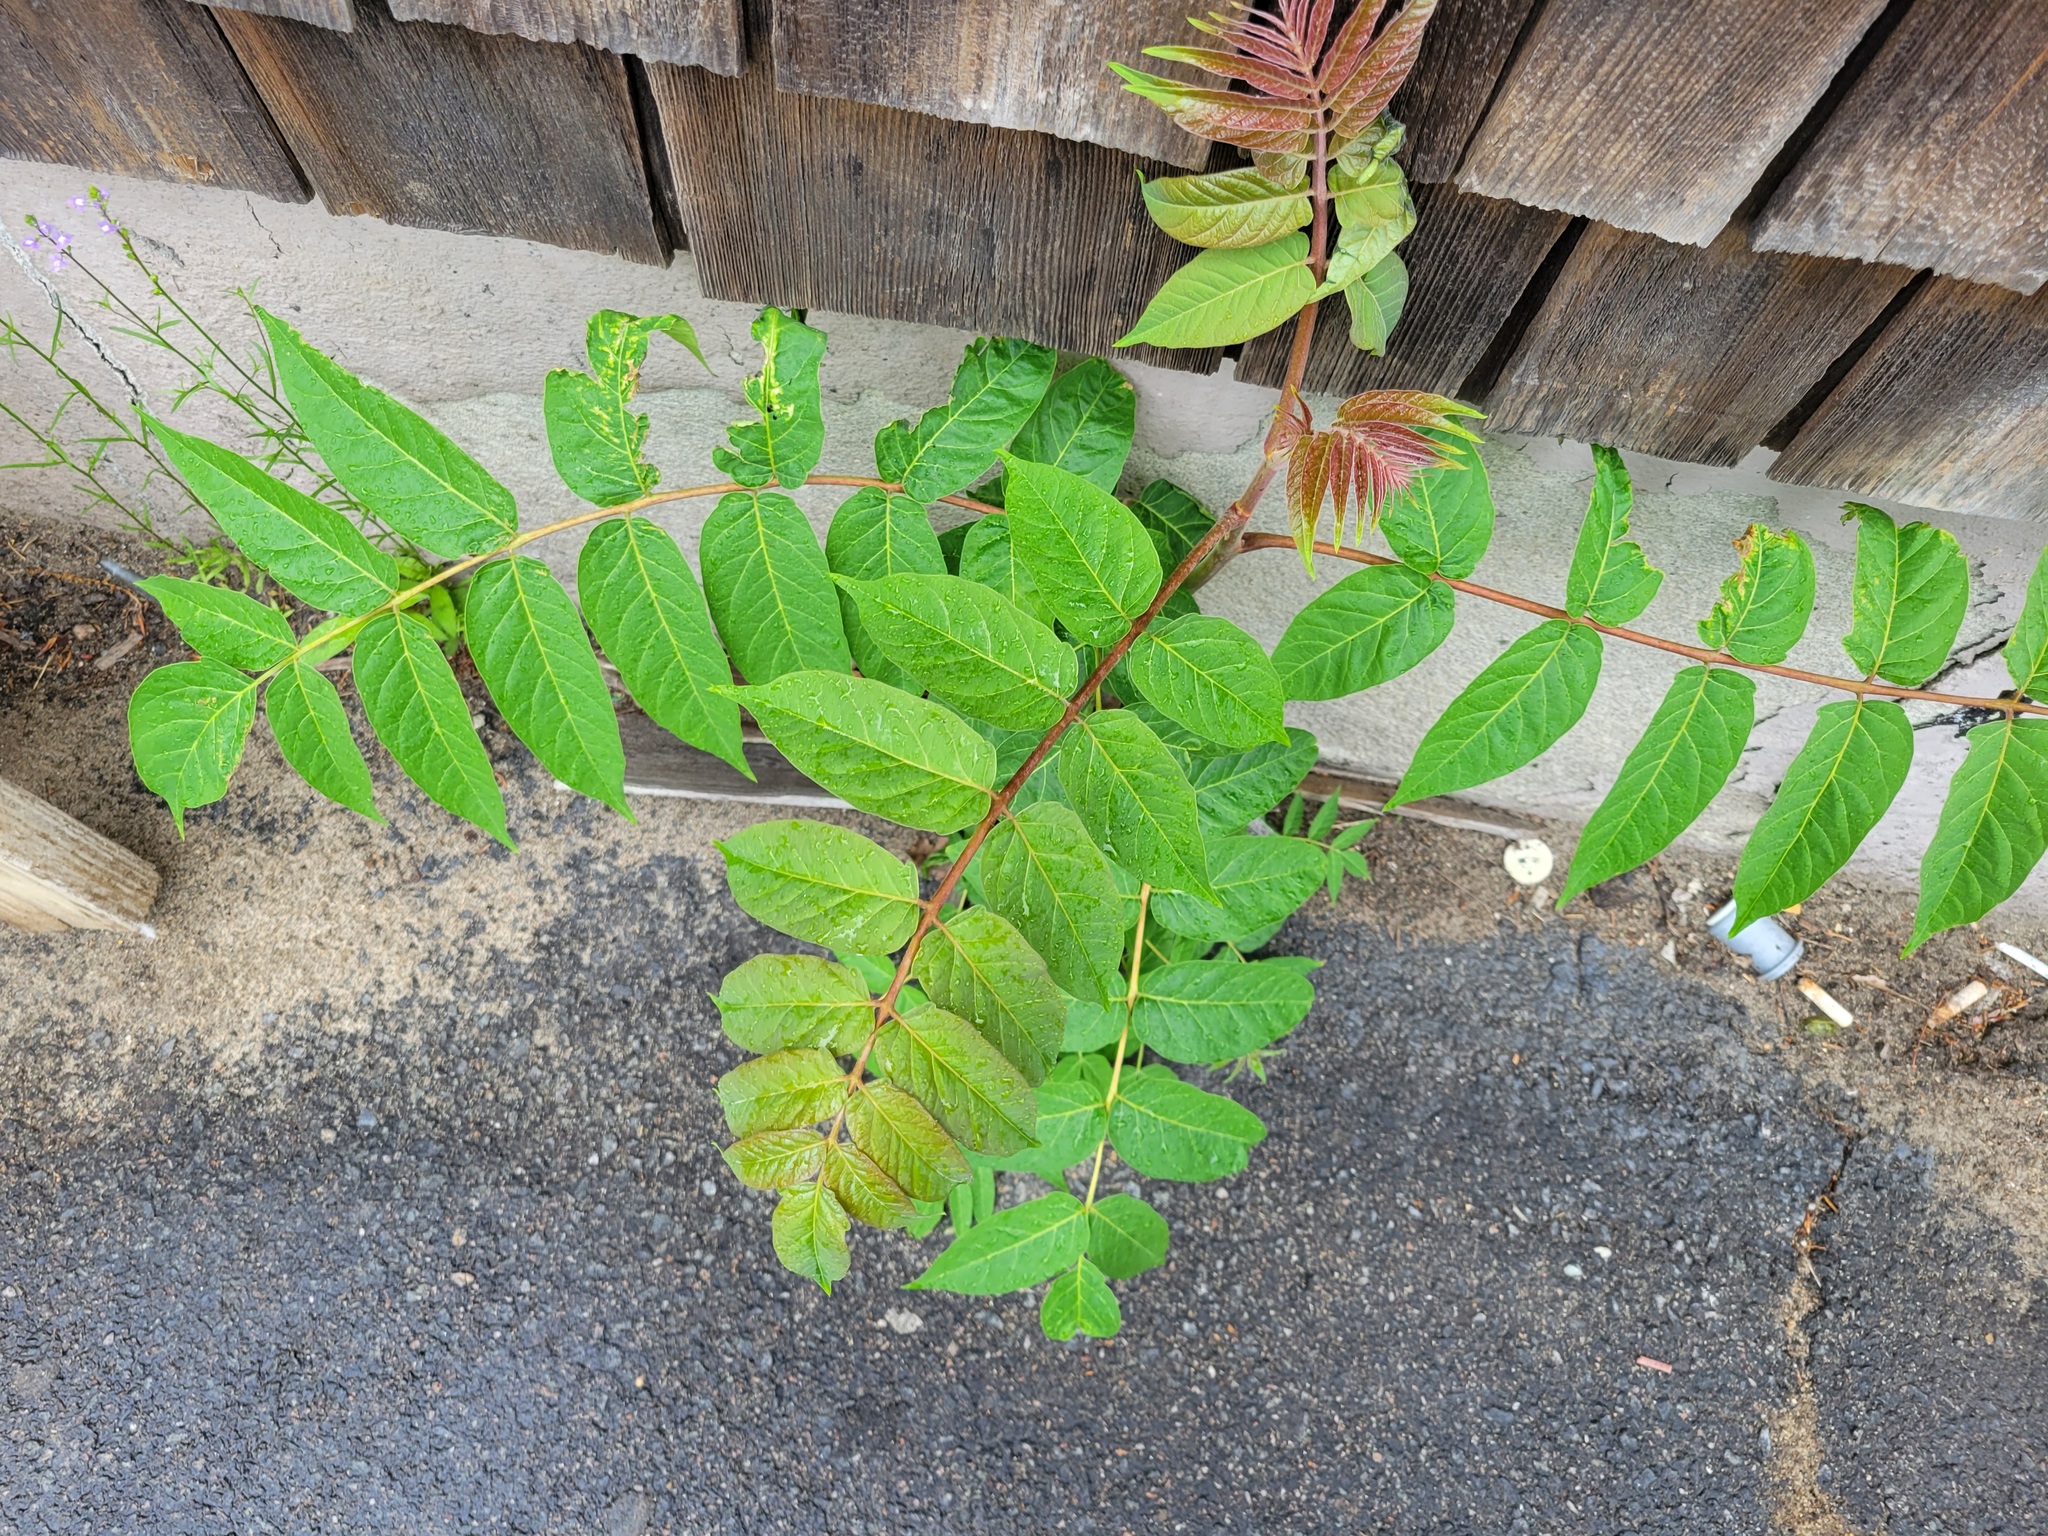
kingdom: Plantae
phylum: Tracheophyta
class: Magnoliopsida
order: Sapindales
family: Simaroubaceae
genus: Ailanthus
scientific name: Ailanthus altissima
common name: Tree-of-heaven
